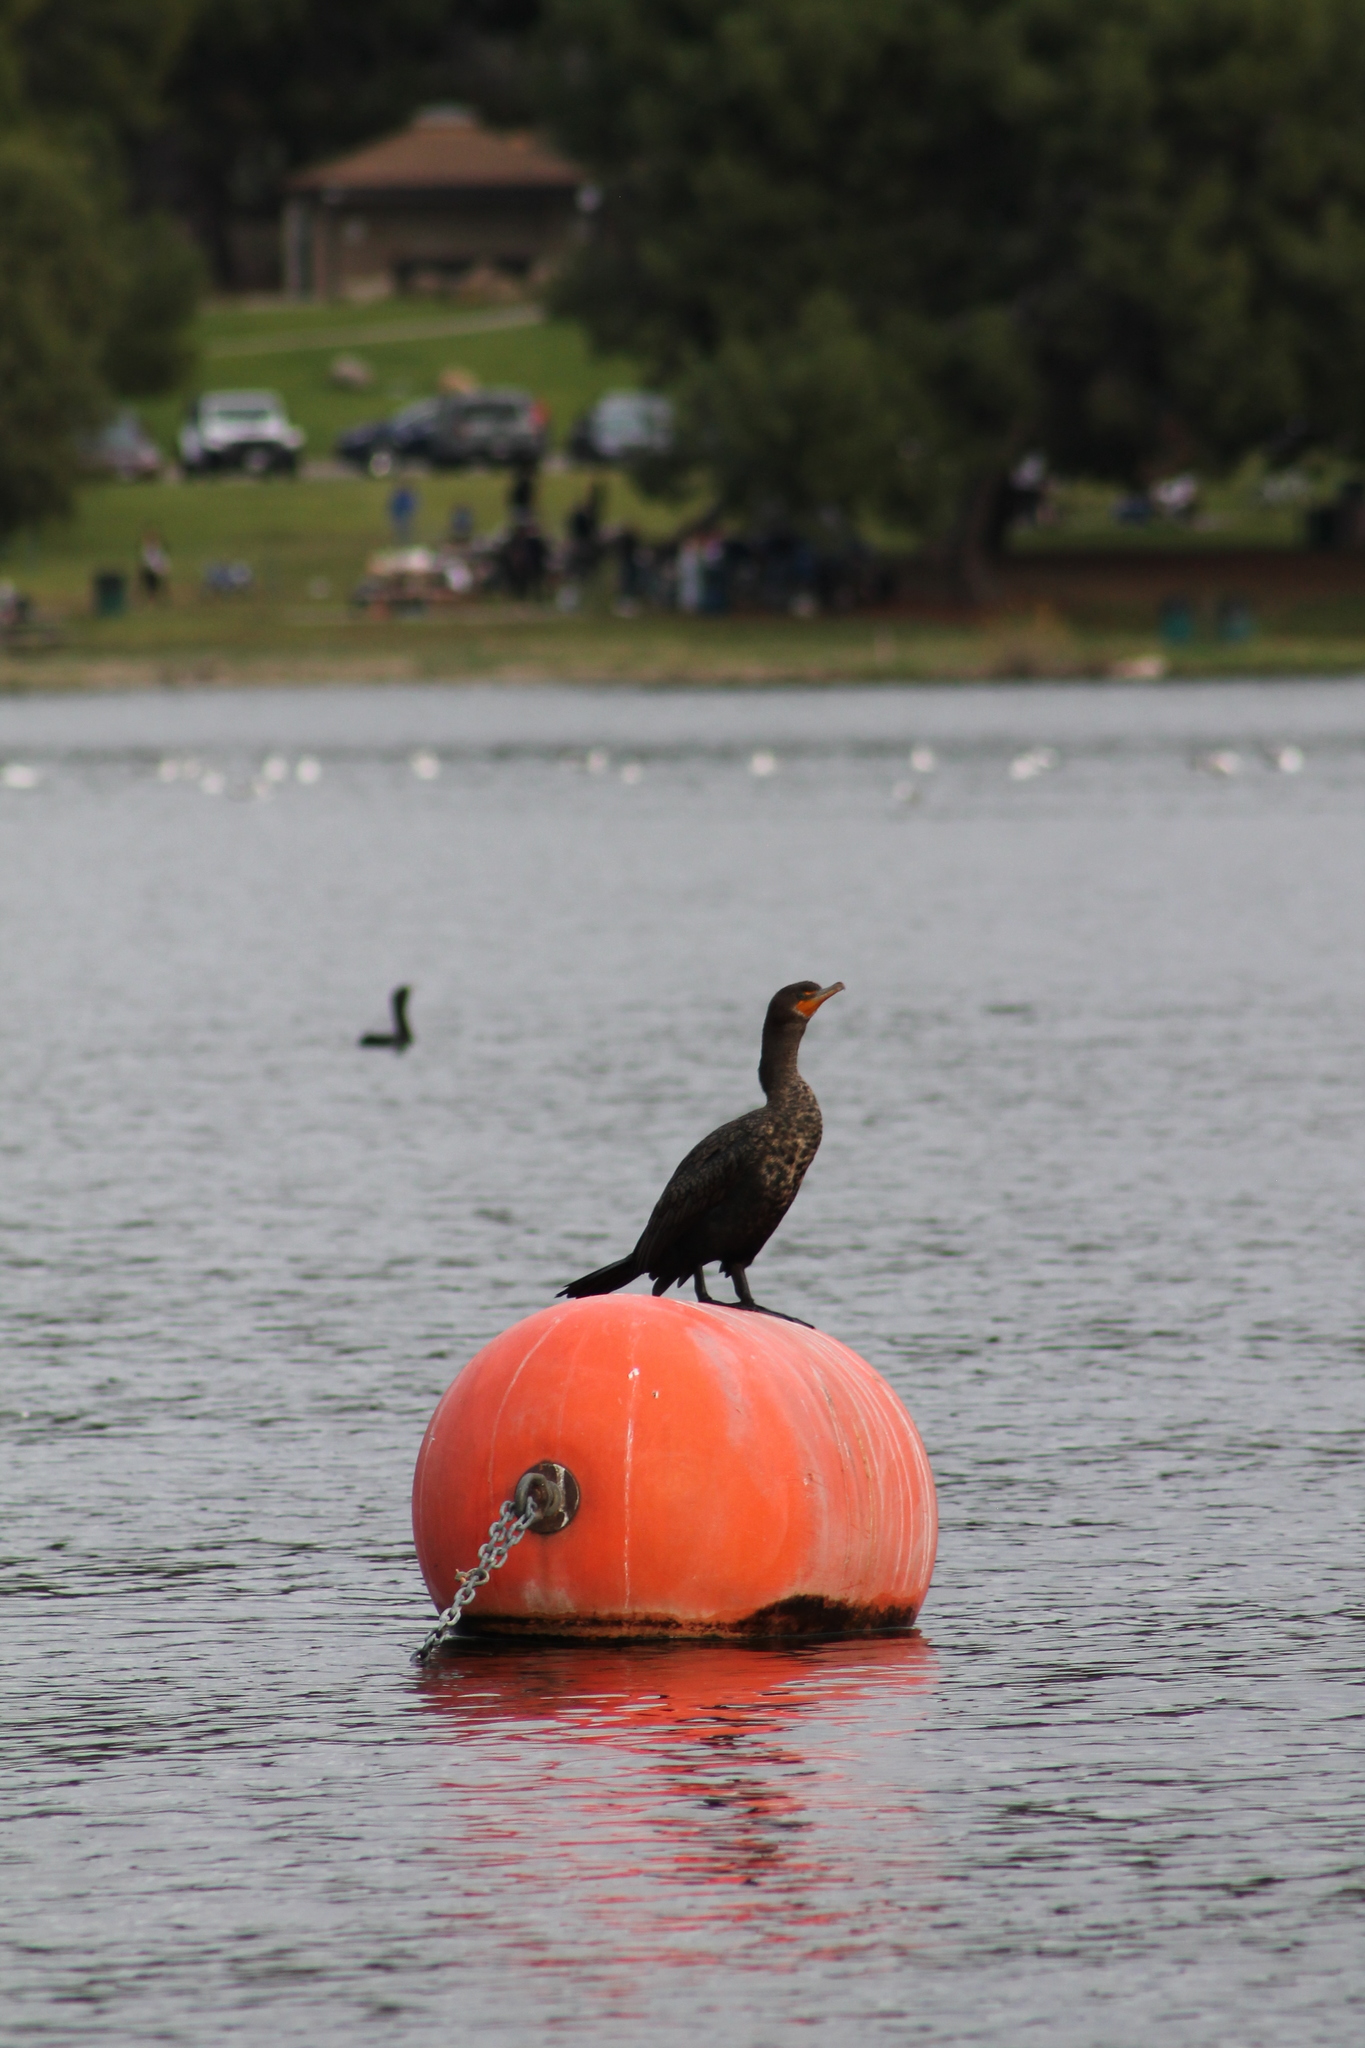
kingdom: Animalia
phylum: Chordata
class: Aves
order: Suliformes
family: Phalacrocoracidae
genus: Phalacrocorax
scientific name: Phalacrocorax auritus
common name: Double-crested cormorant
